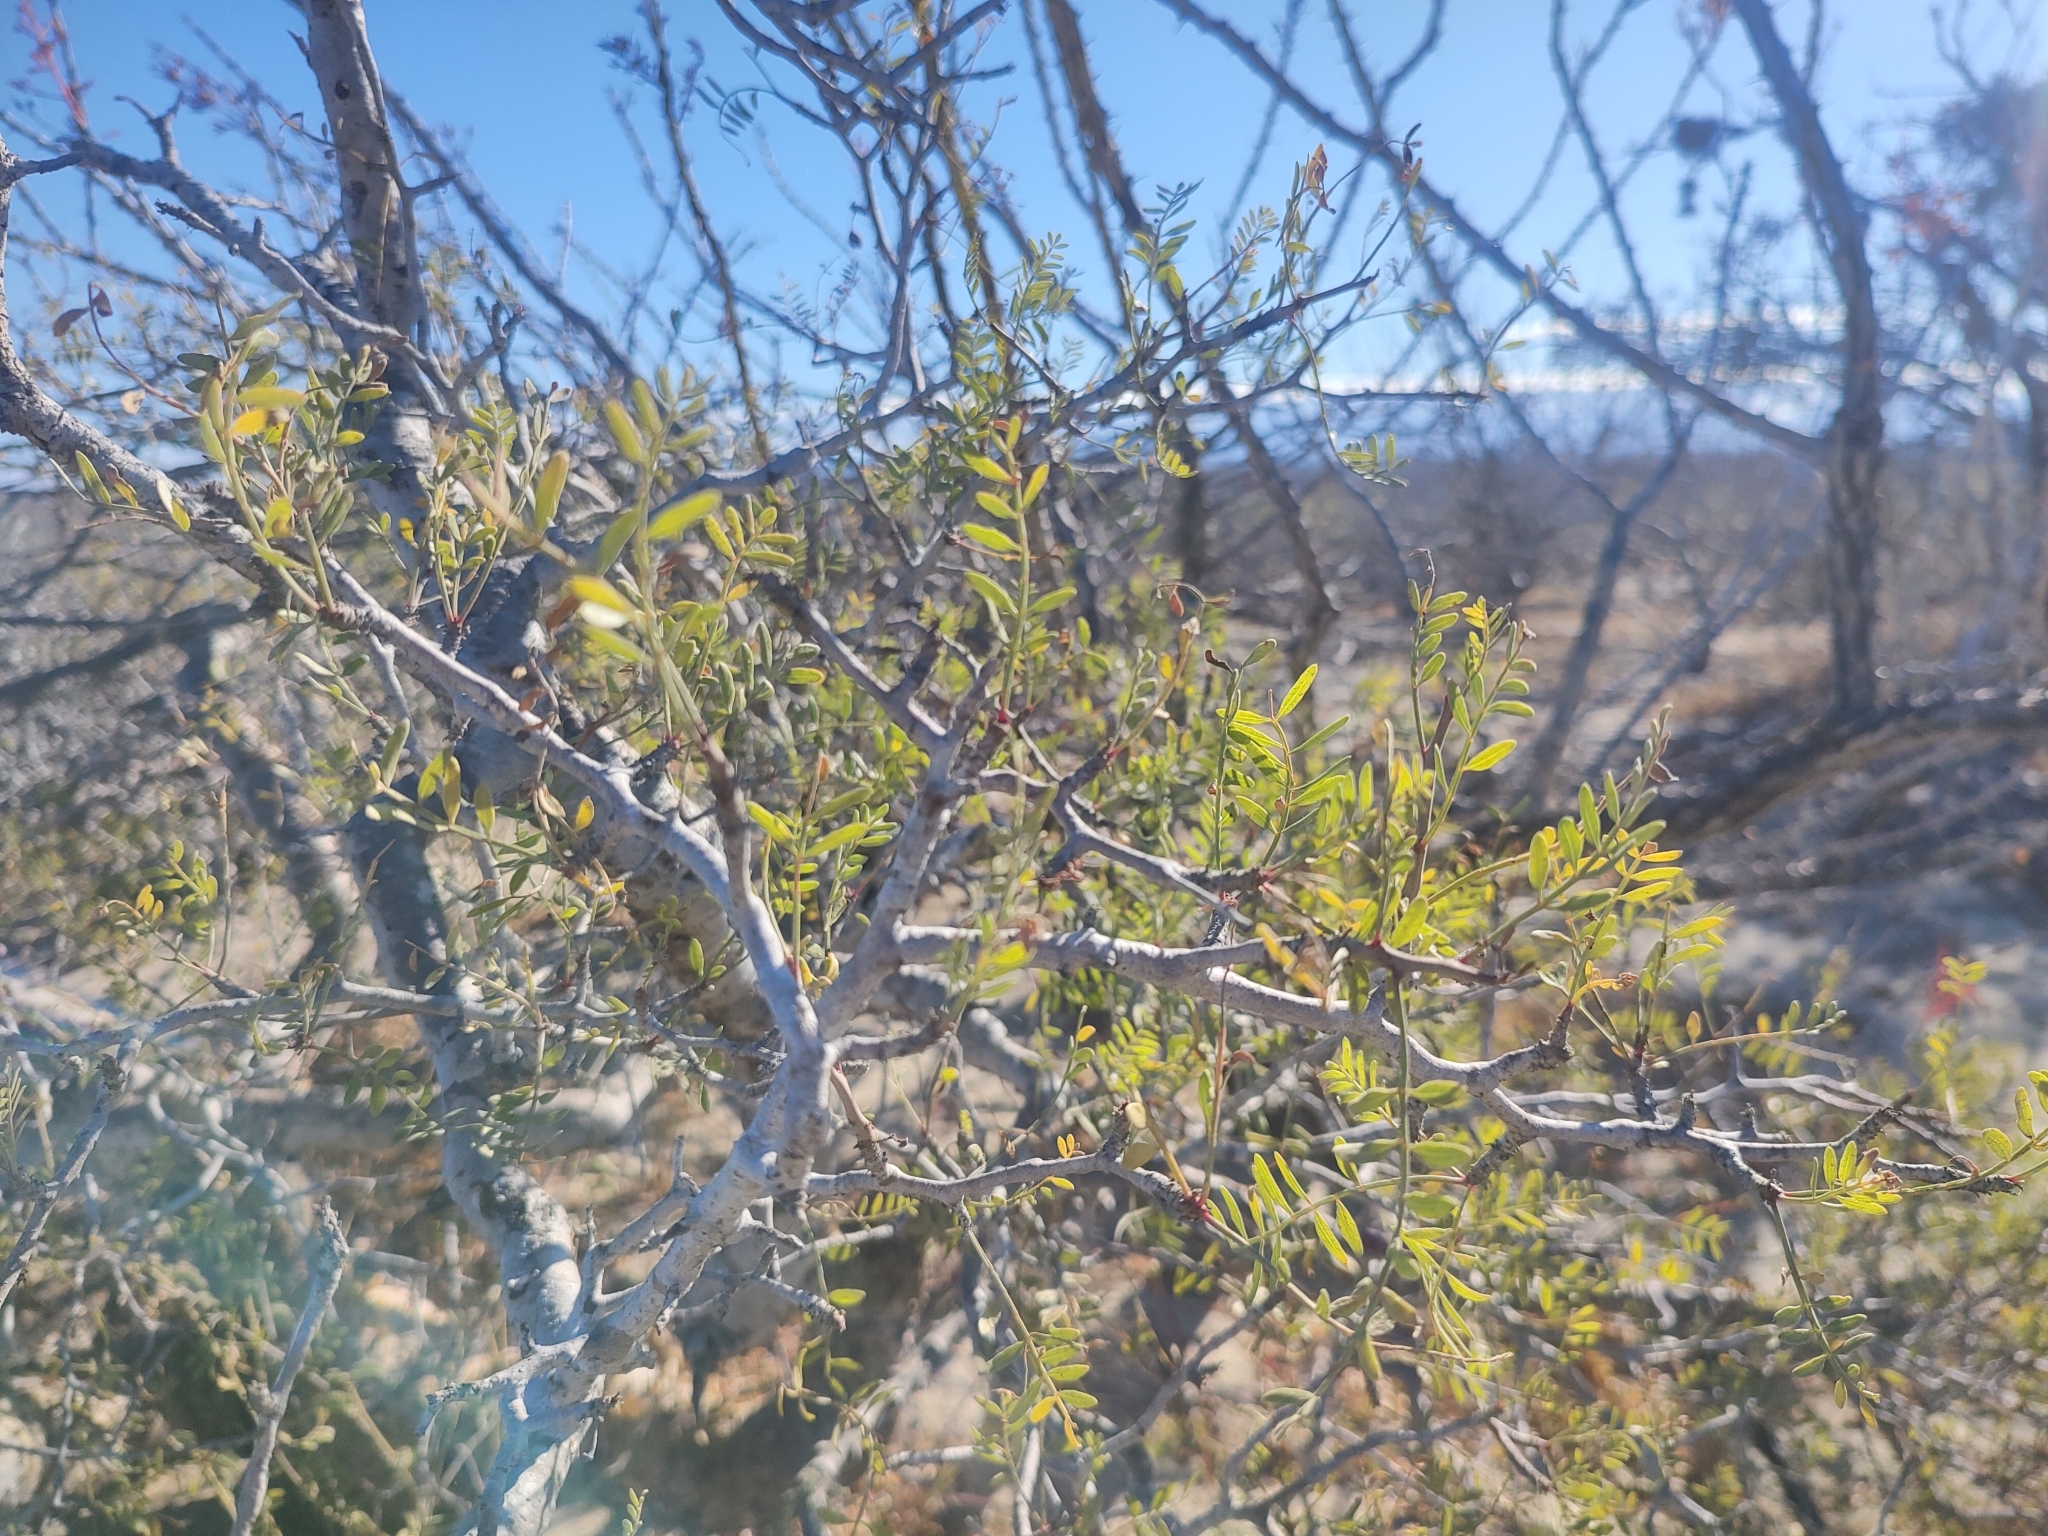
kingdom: Plantae
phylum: Tracheophyta
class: Magnoliopsida
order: Sapindales
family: Burseraceae
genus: Bursera
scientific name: Bursera microphylla
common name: Elephant tree
